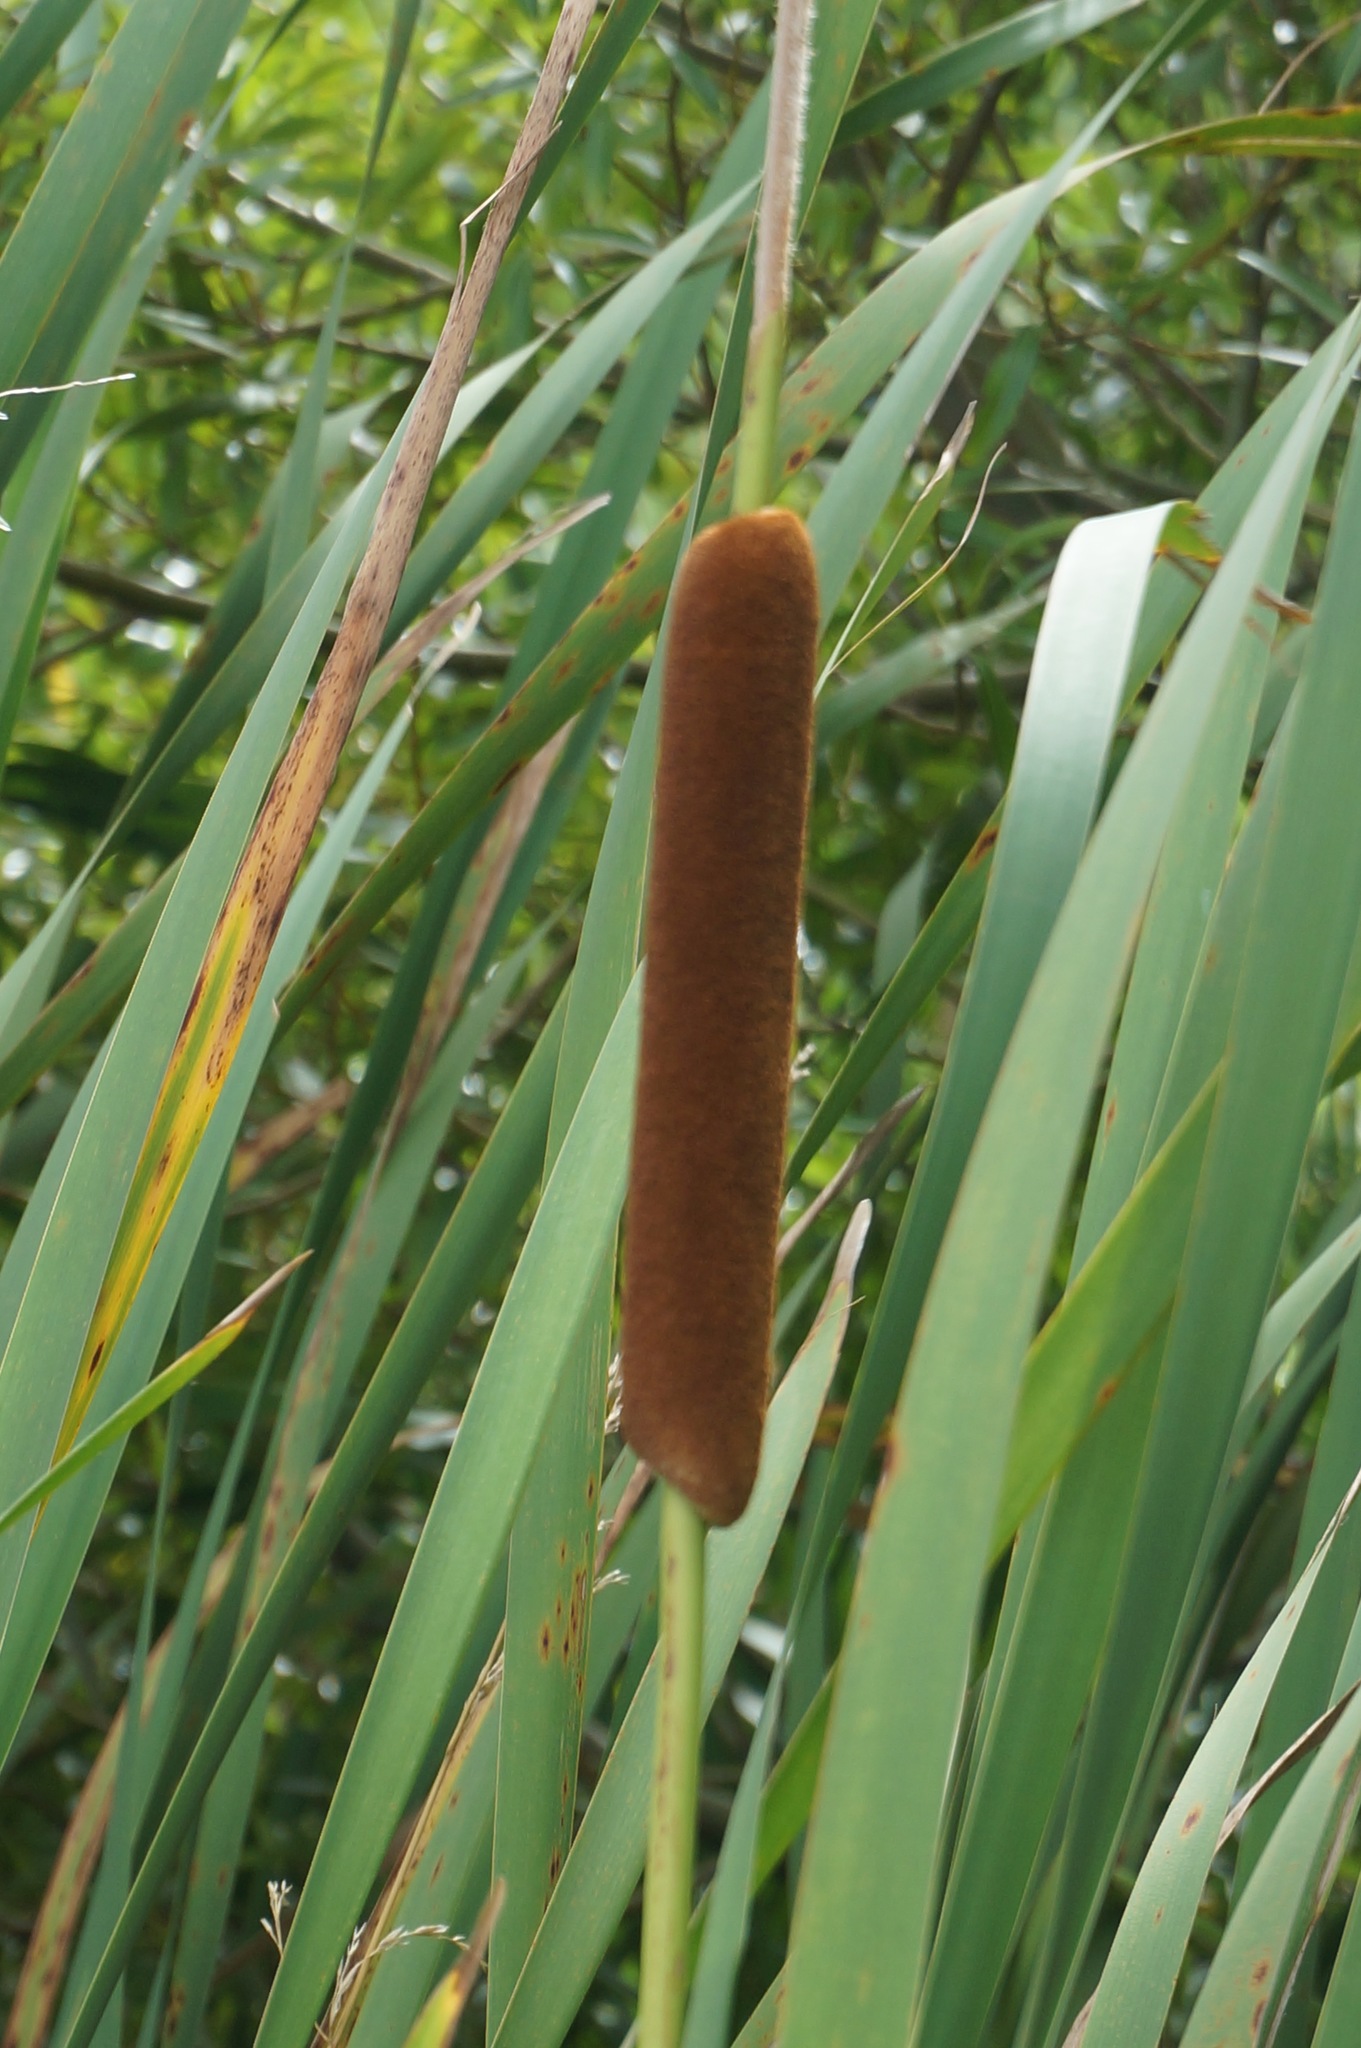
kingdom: Plantae
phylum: Tracheophyta
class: Liliopsida
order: Poales
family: Typhaceae
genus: Typha
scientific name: Typha orientalis
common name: Bullrush
